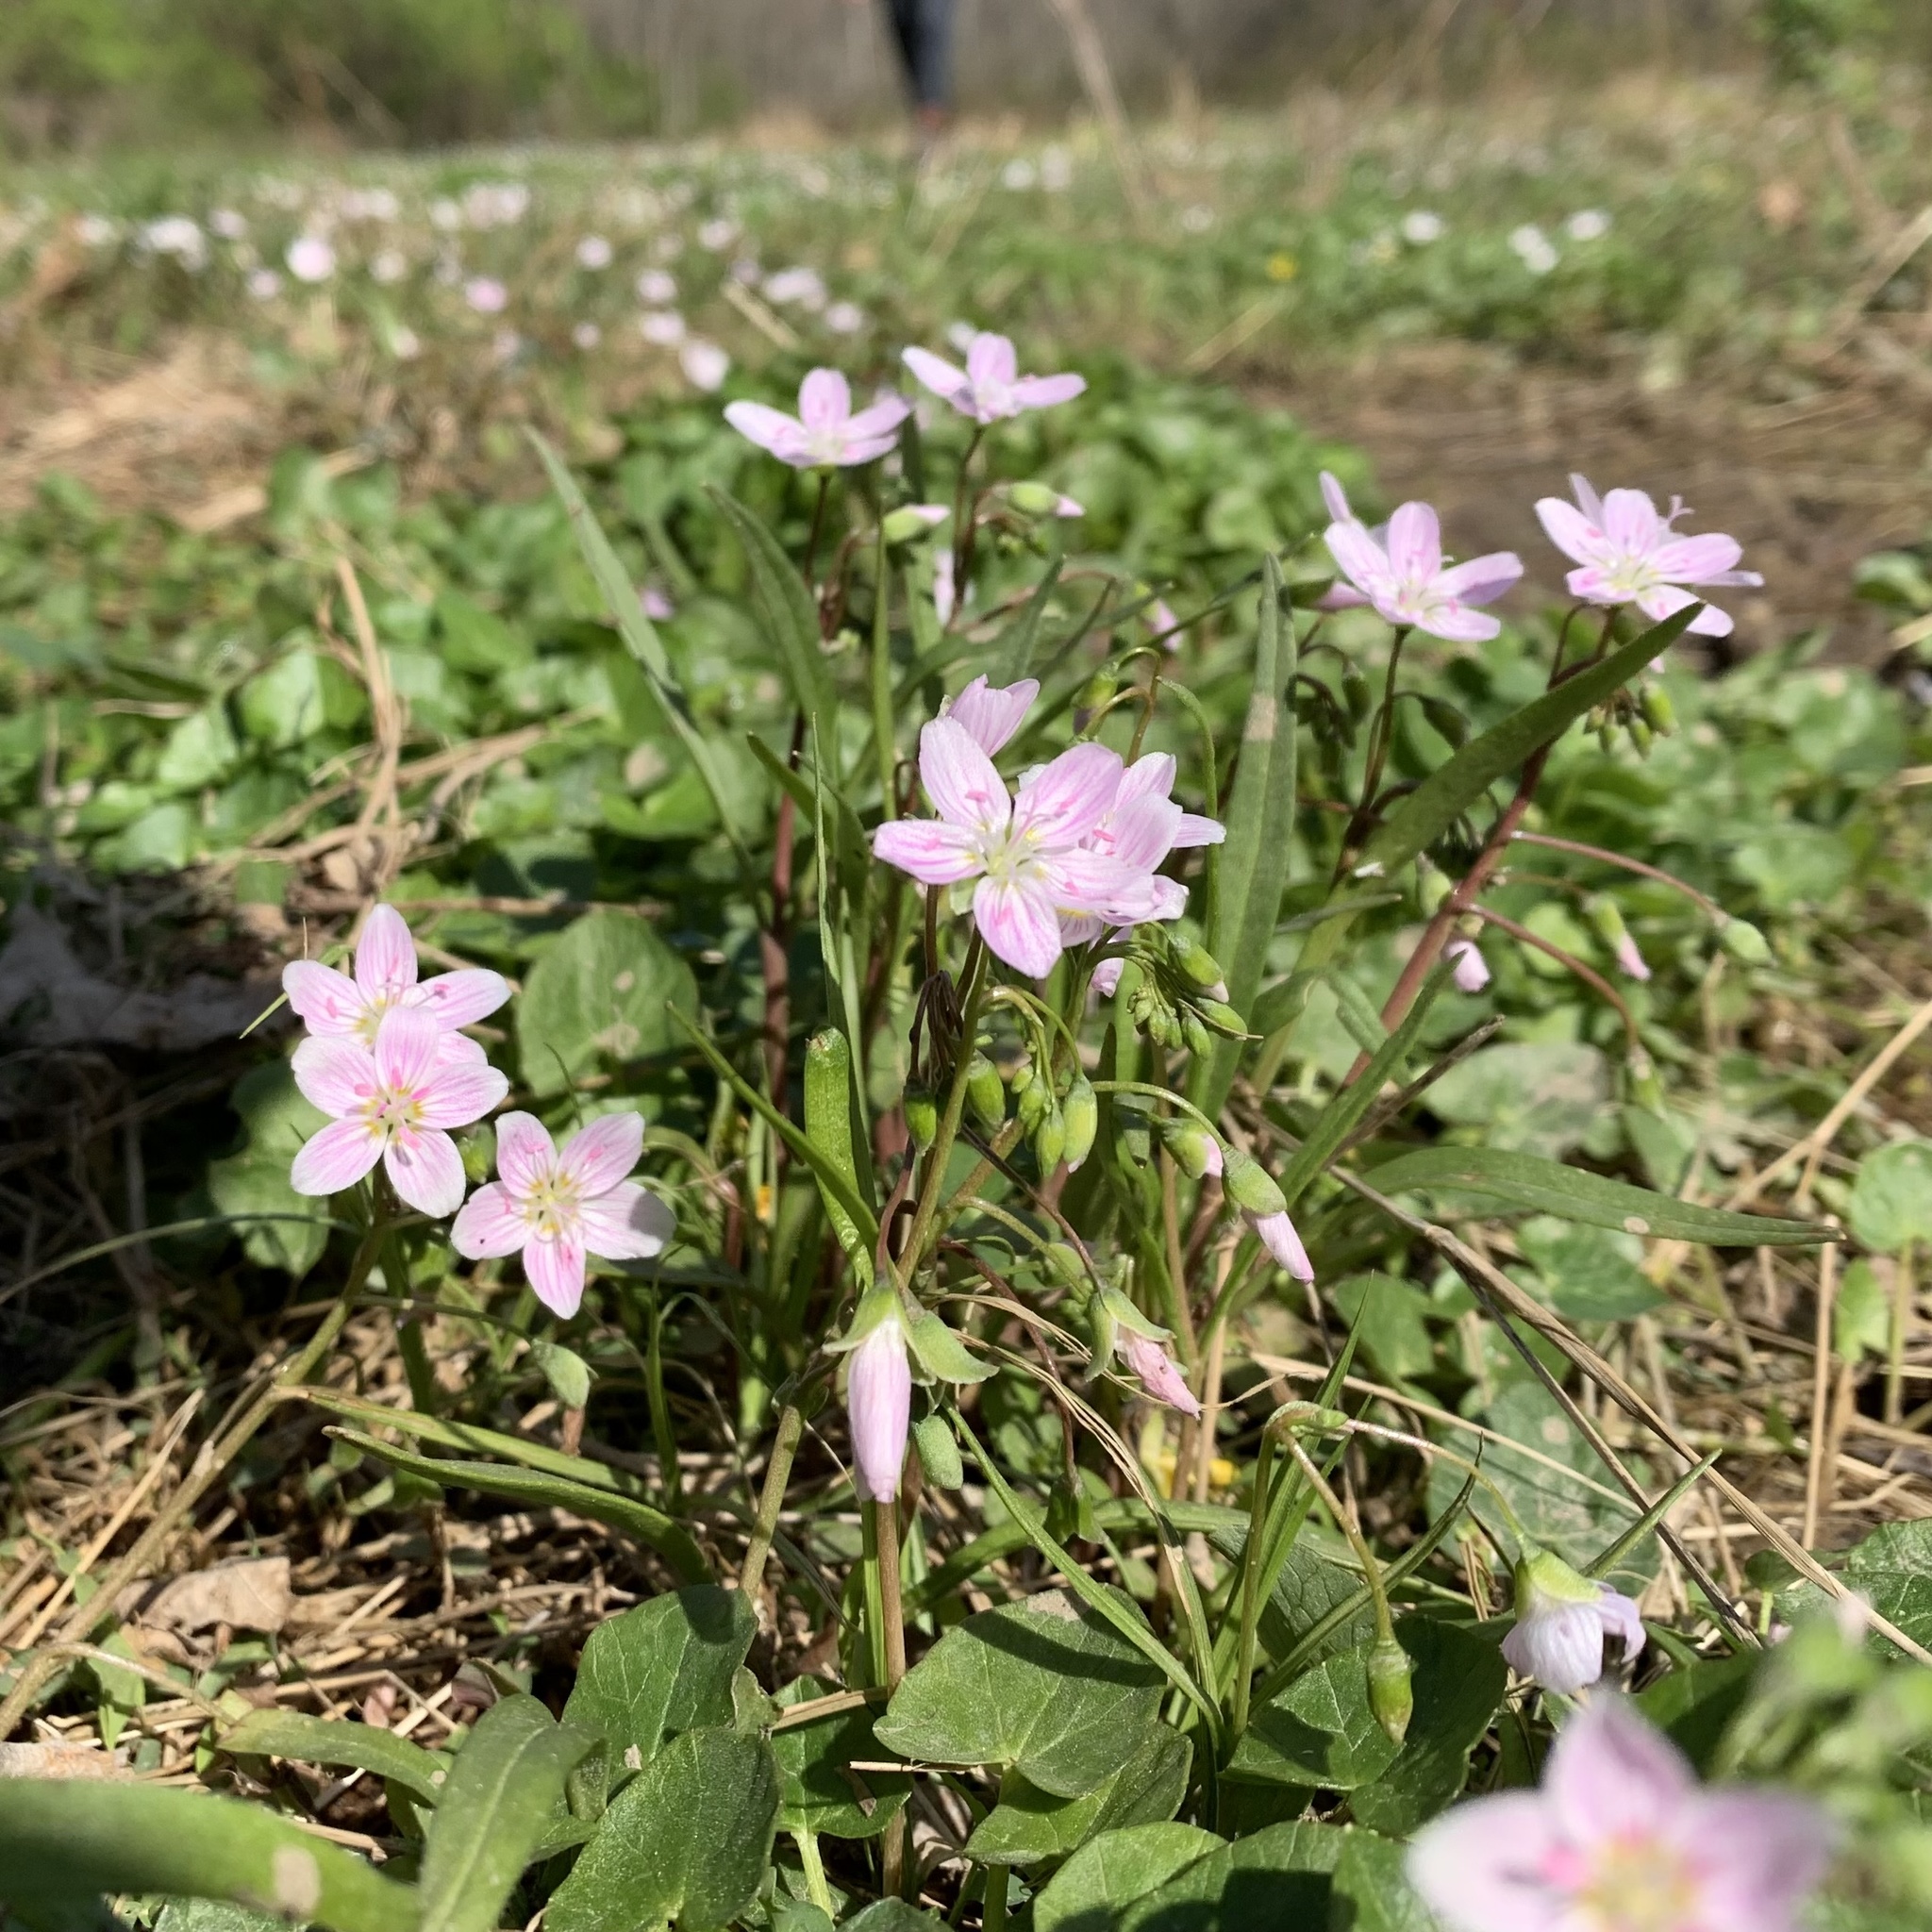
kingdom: Plantae
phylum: Tracheophyta
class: Magnoliopsida
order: Caryophyllales
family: Montiaceae
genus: Claytonia
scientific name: Claytonia virginica
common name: Virginia springbeauty
